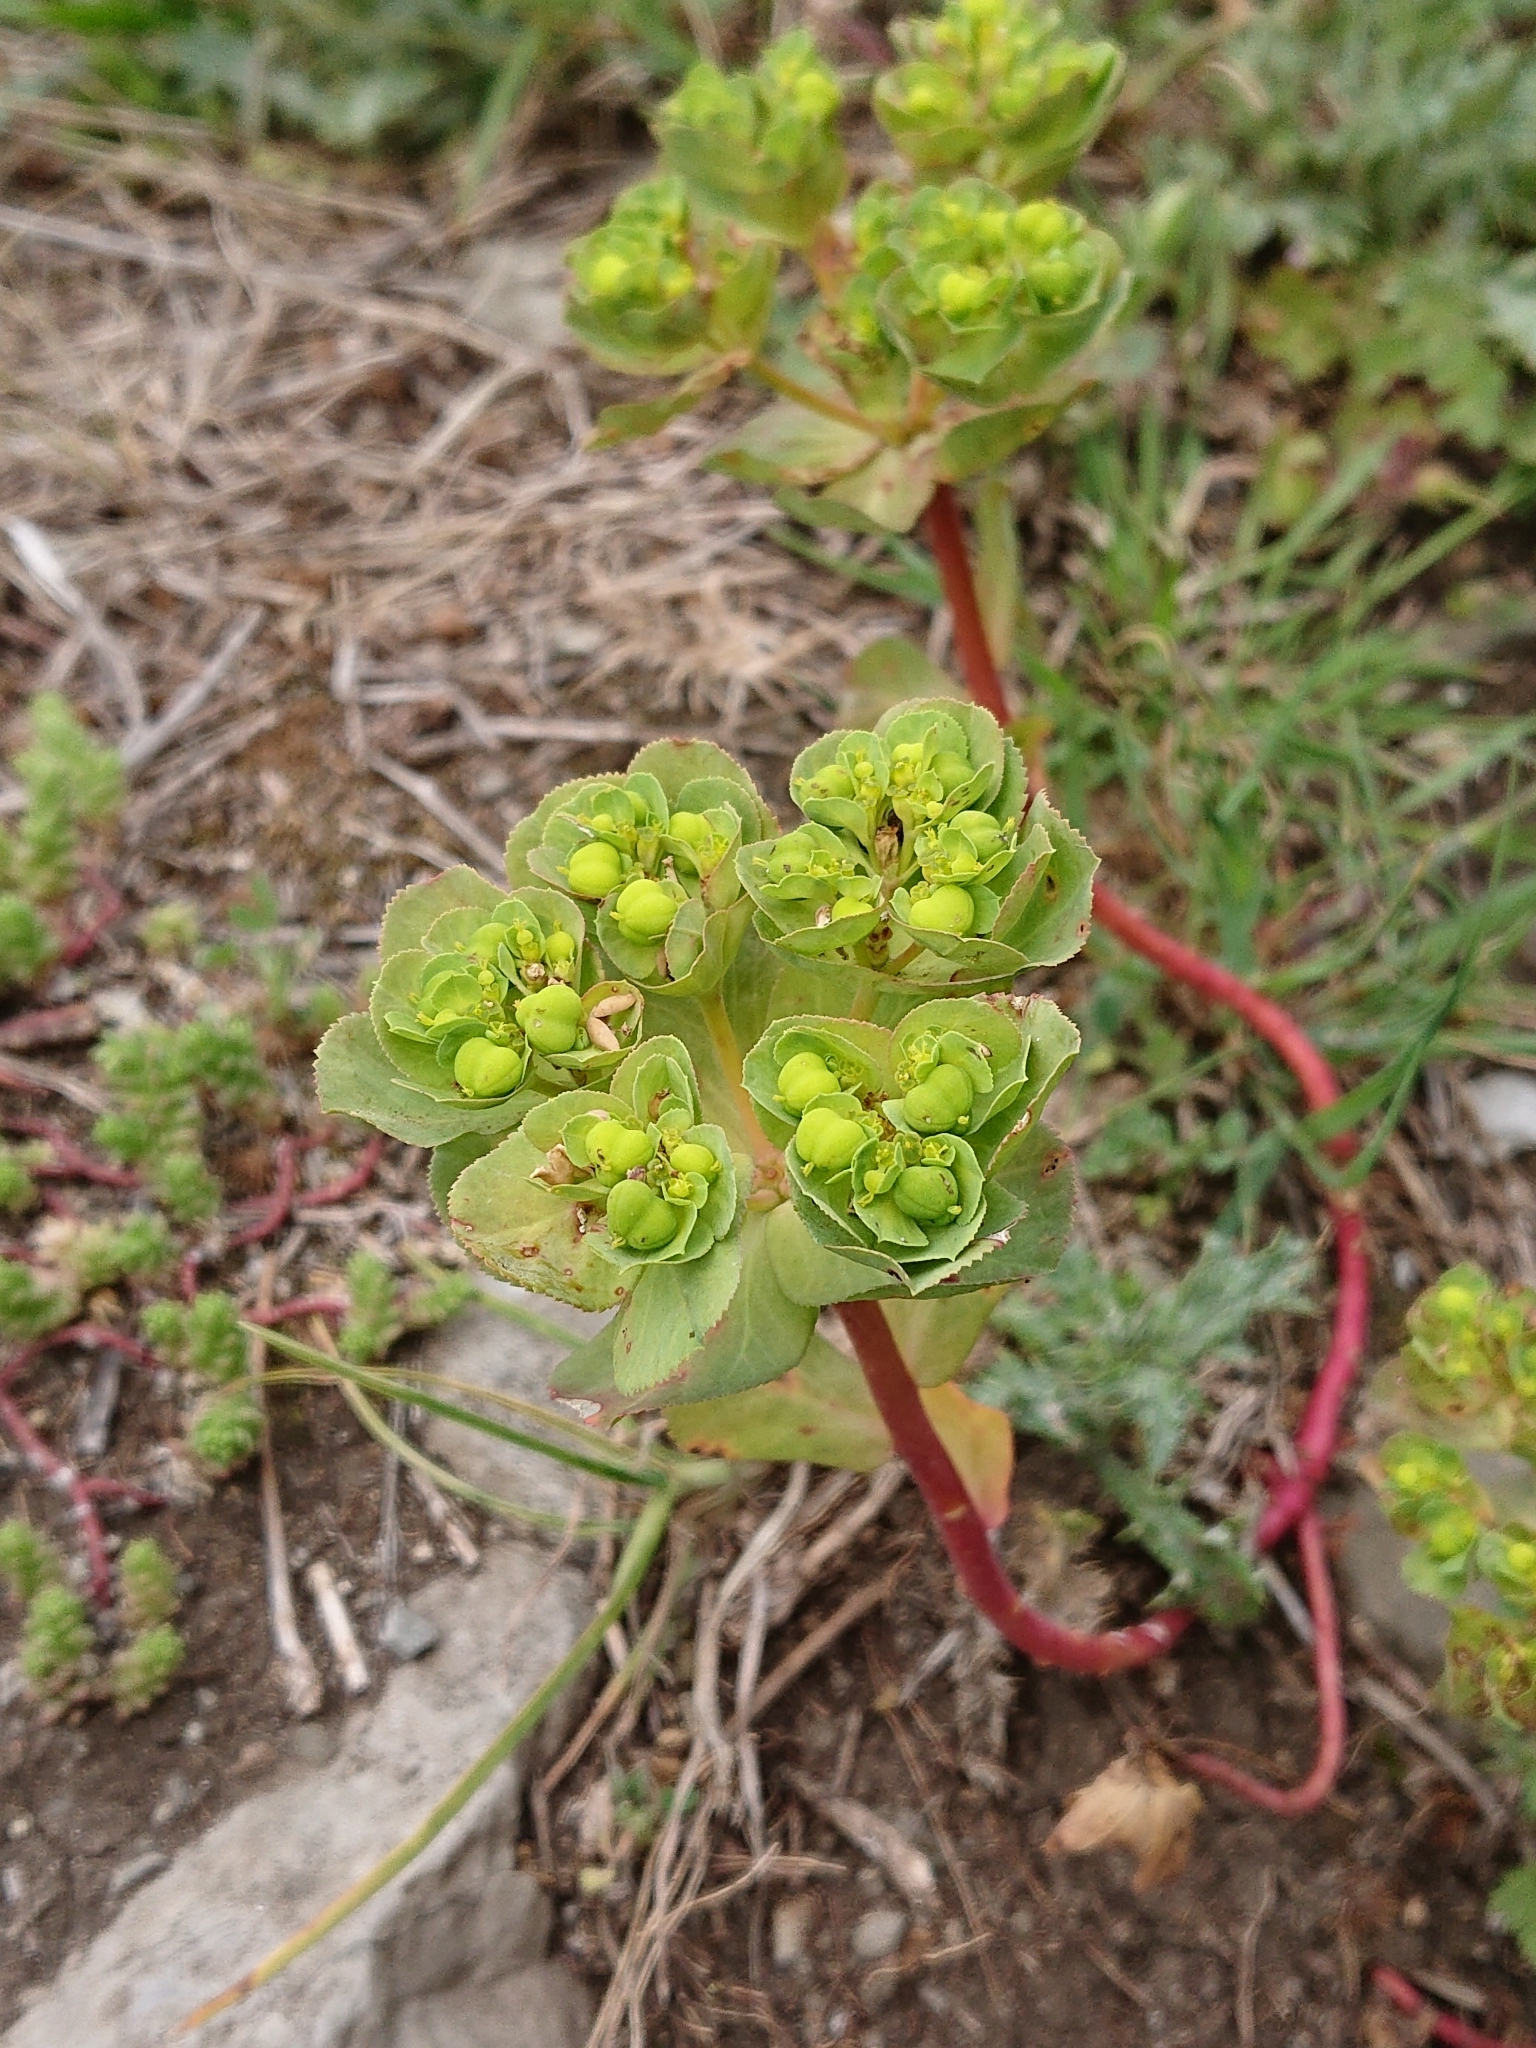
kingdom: Plantae
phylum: Tracheophyta
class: Magnoliopsida
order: Malpighiales
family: Euphorbiaceae
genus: Euphorbia
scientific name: Euphorbia helioscopia
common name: Sun spurge
